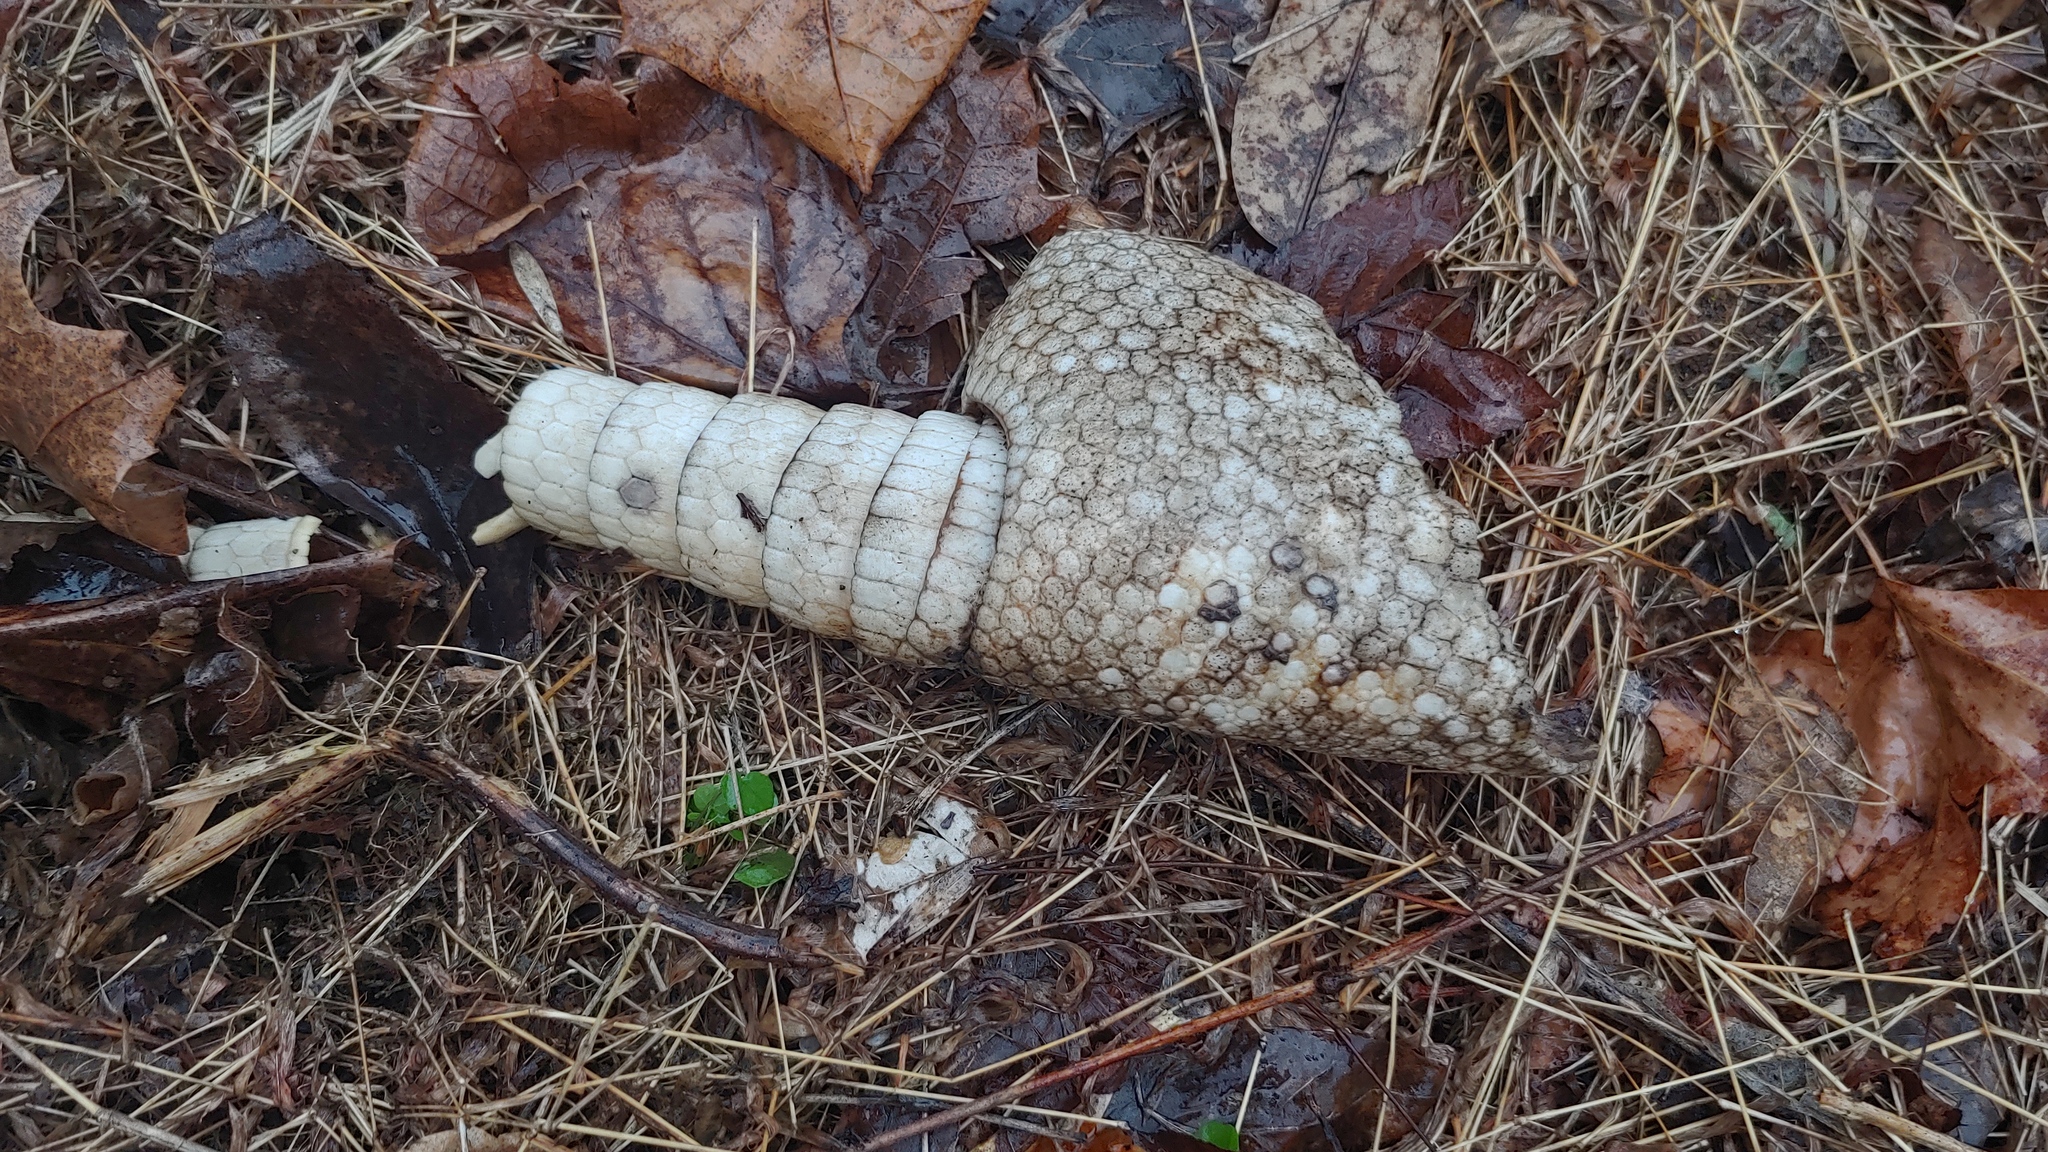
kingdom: Animalia
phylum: Chordata
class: Mammalia
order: Cingulata
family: Dasypodidae
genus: Dasypus
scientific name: Dasypus novemcinctus
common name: Nine-banded armadillo
